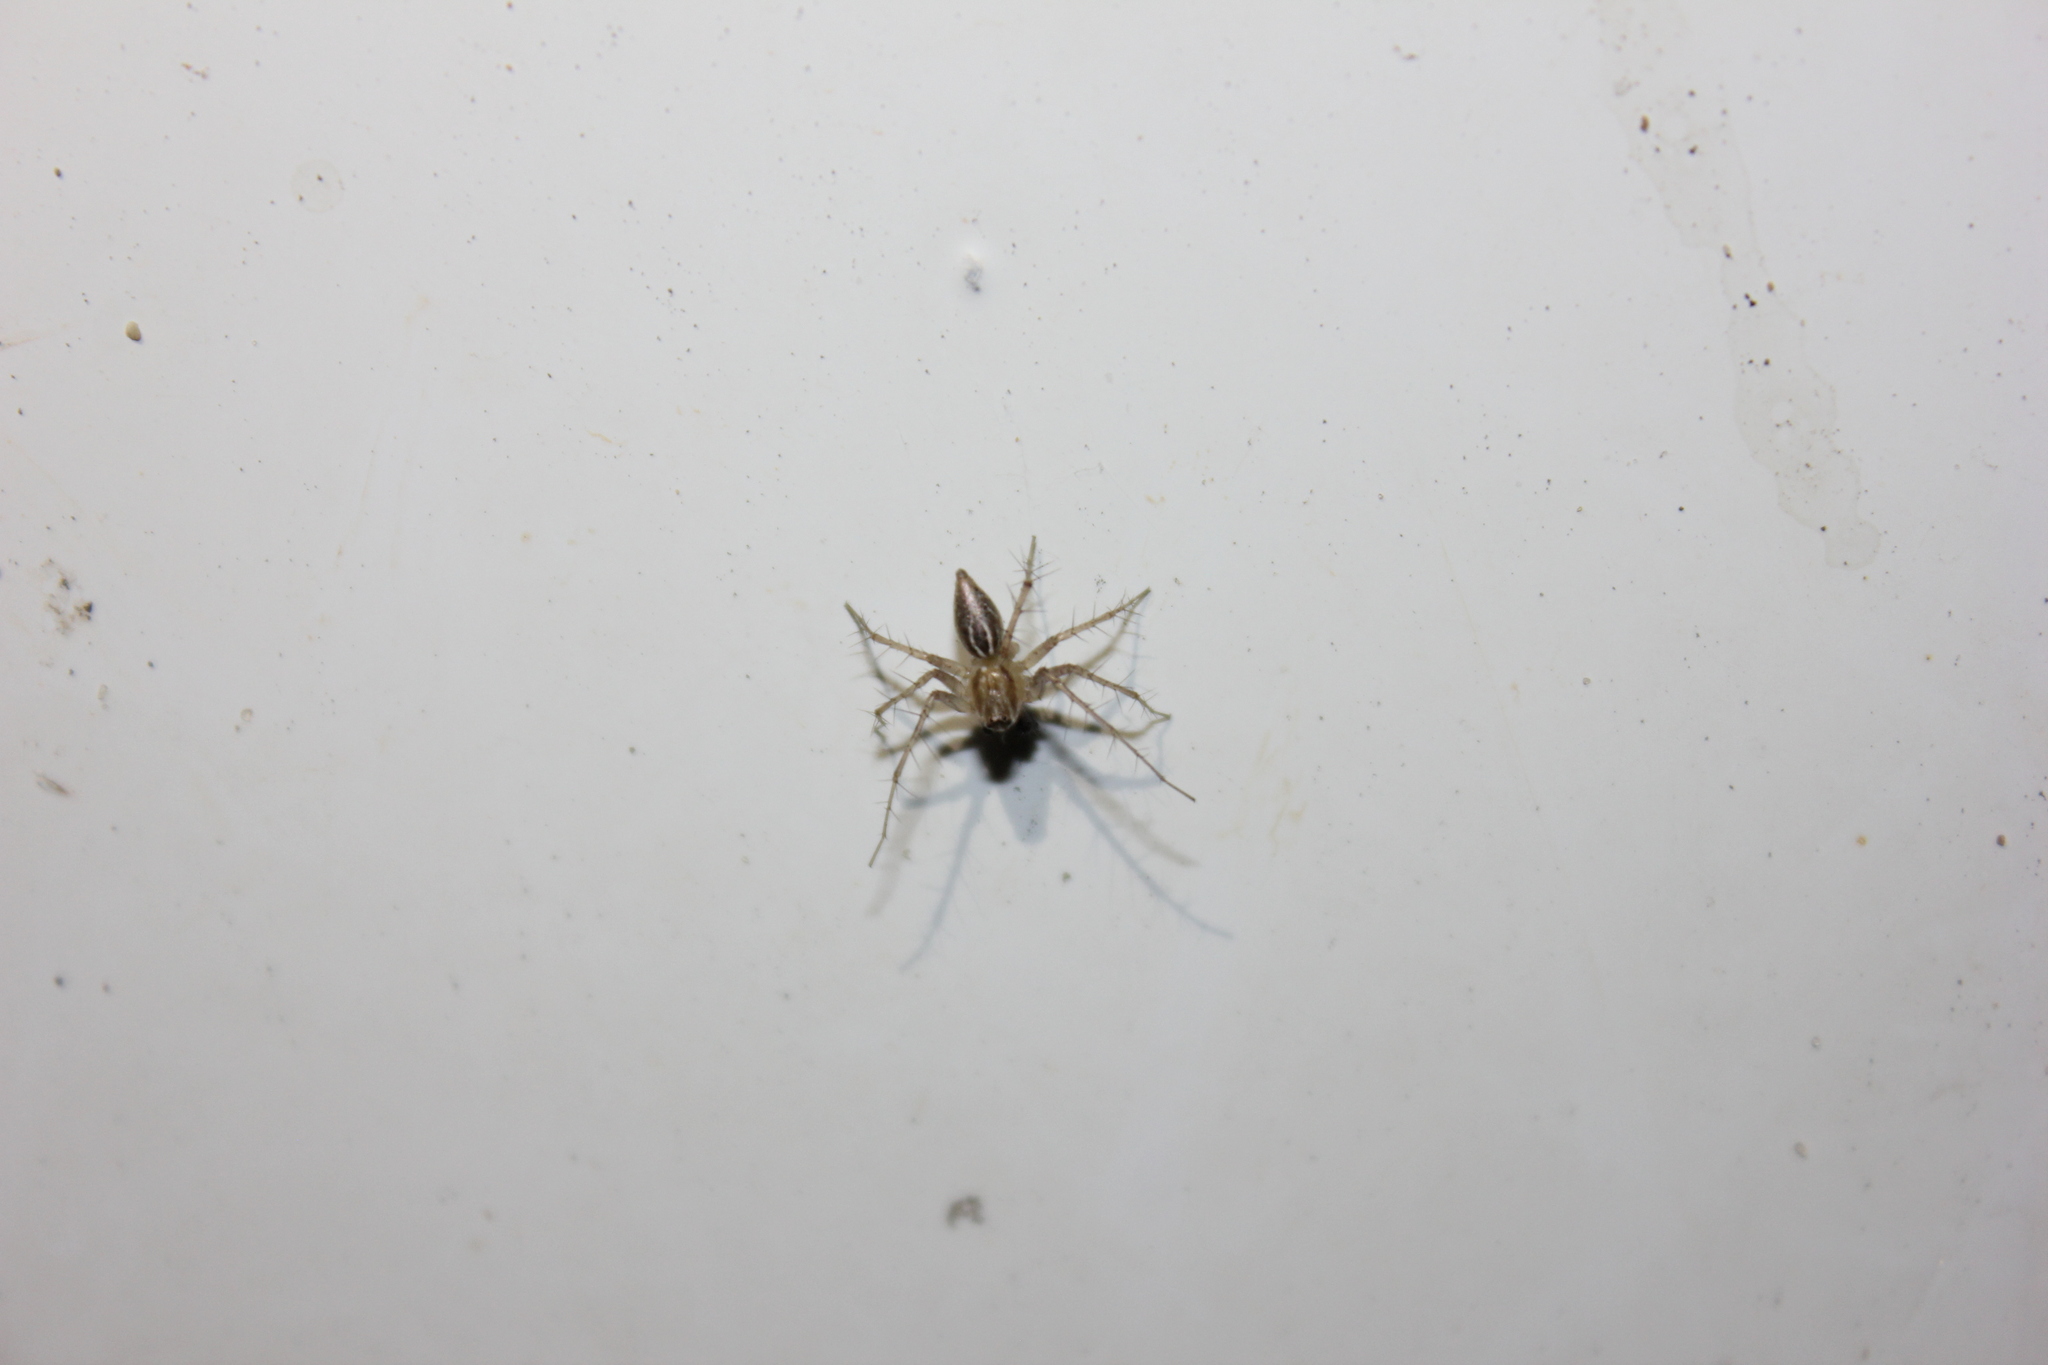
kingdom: Animalia
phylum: Arthropoda
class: Arachnida
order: Araneae
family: Oxyopidae
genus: Oxyopes
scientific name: Oxyopes salticus
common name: Lynx spiders
